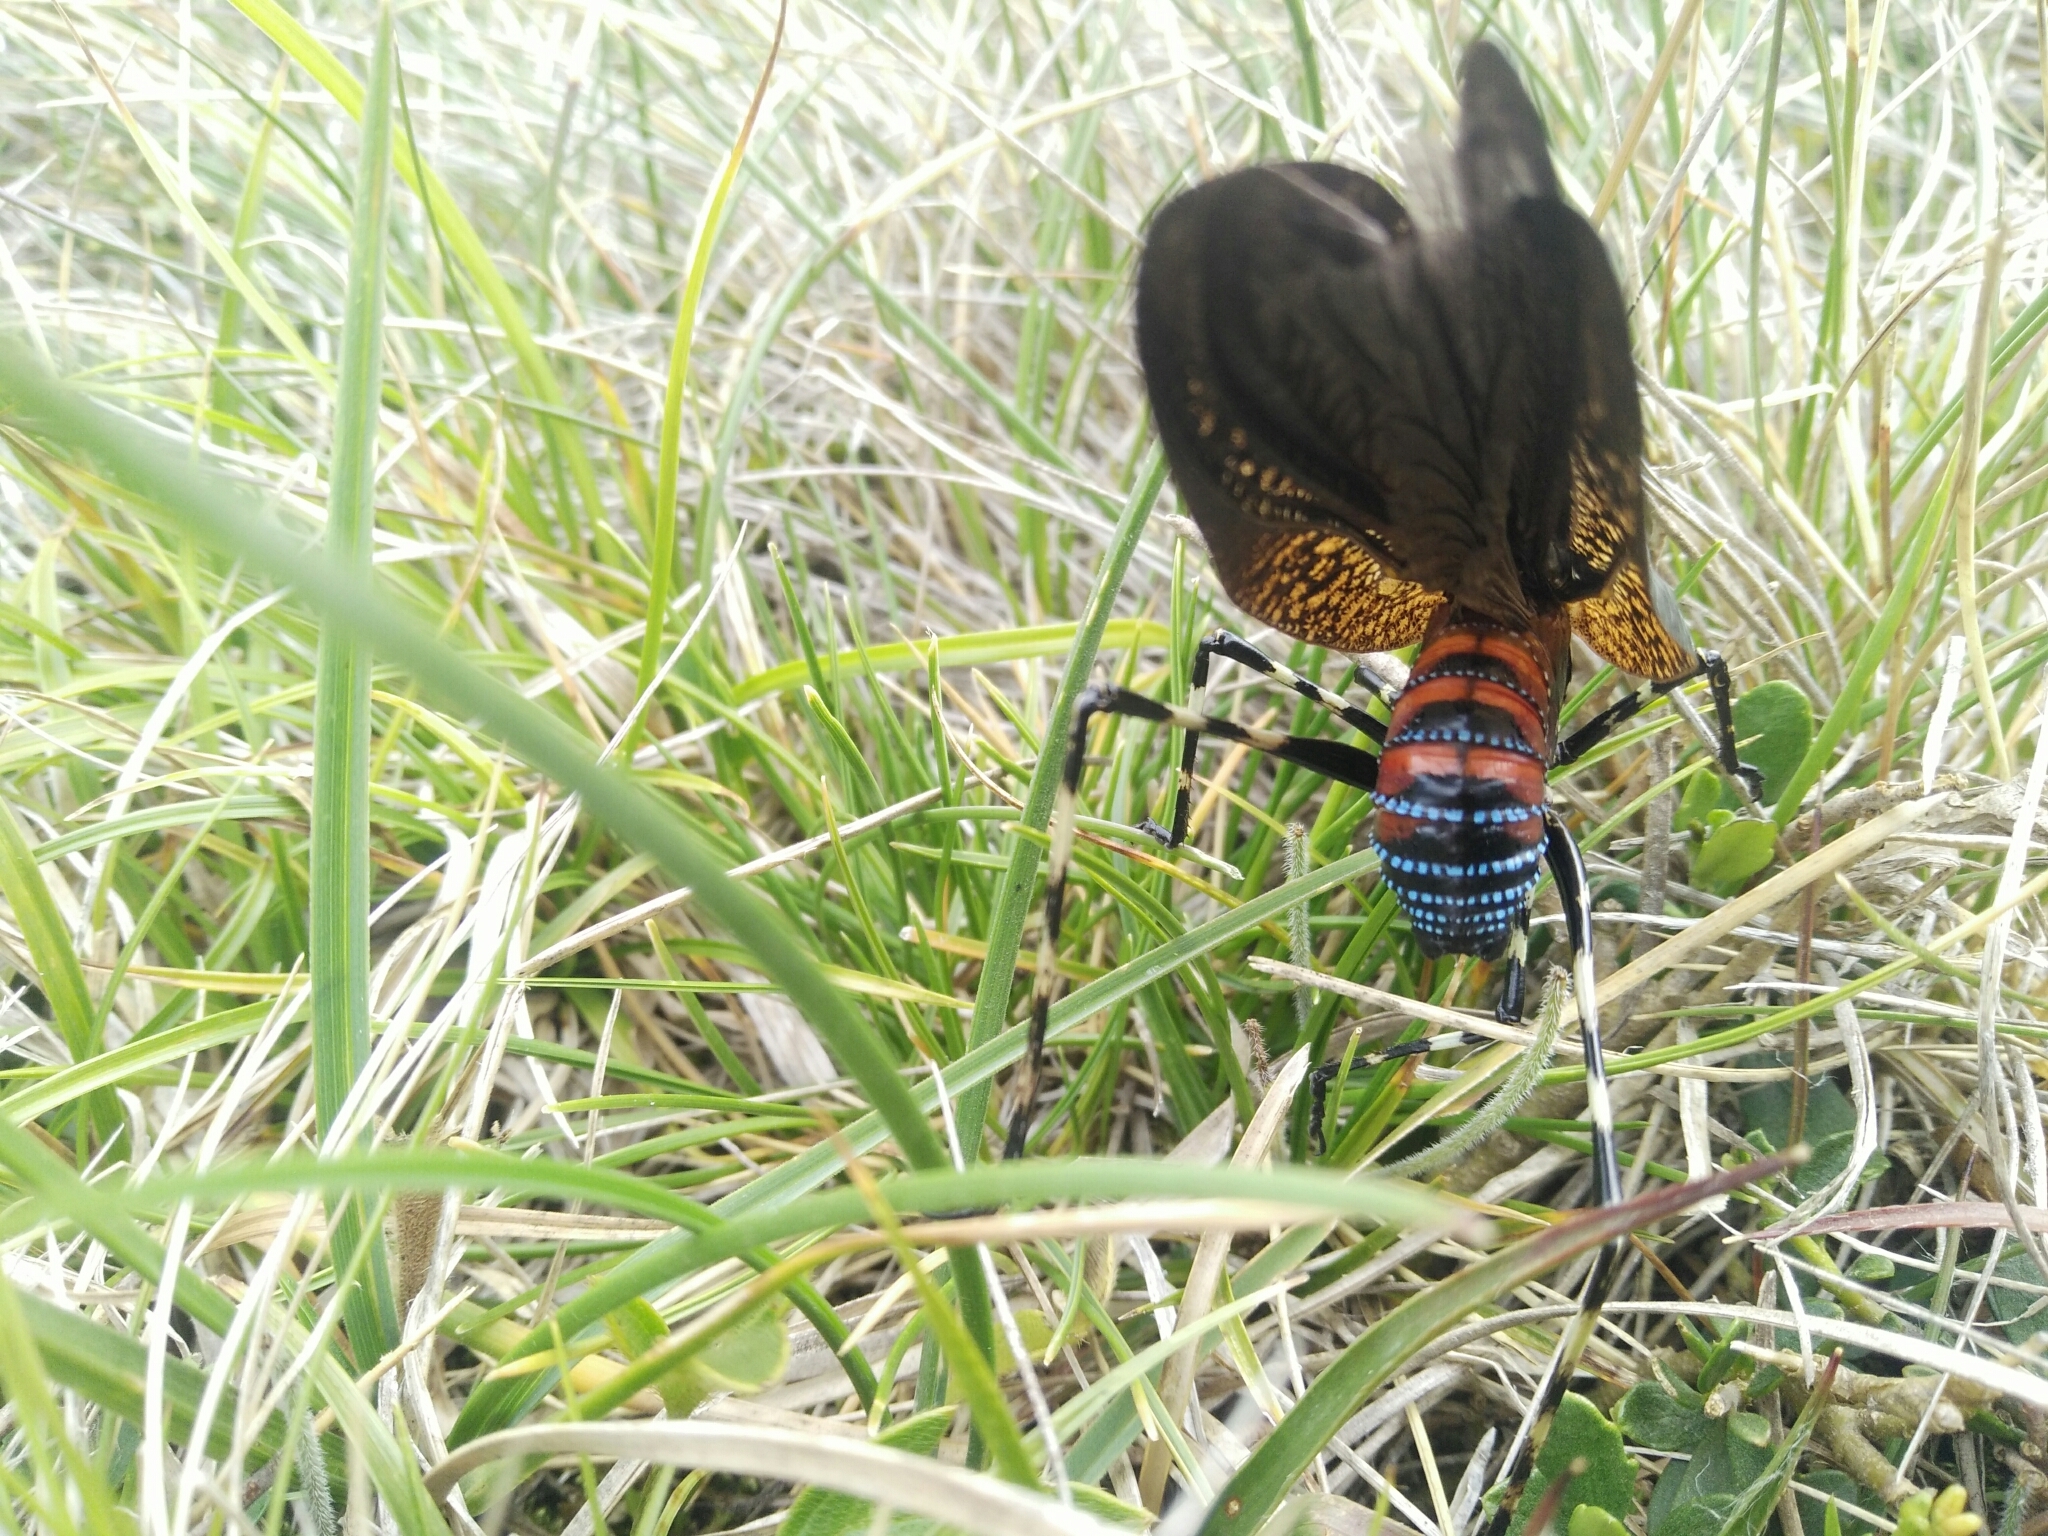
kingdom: Animalia
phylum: Arthropoda
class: Insecta
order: Orthoptera
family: Tettigoniidae
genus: Acripeza
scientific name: Acripeza reticulata
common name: Mountain katydid
